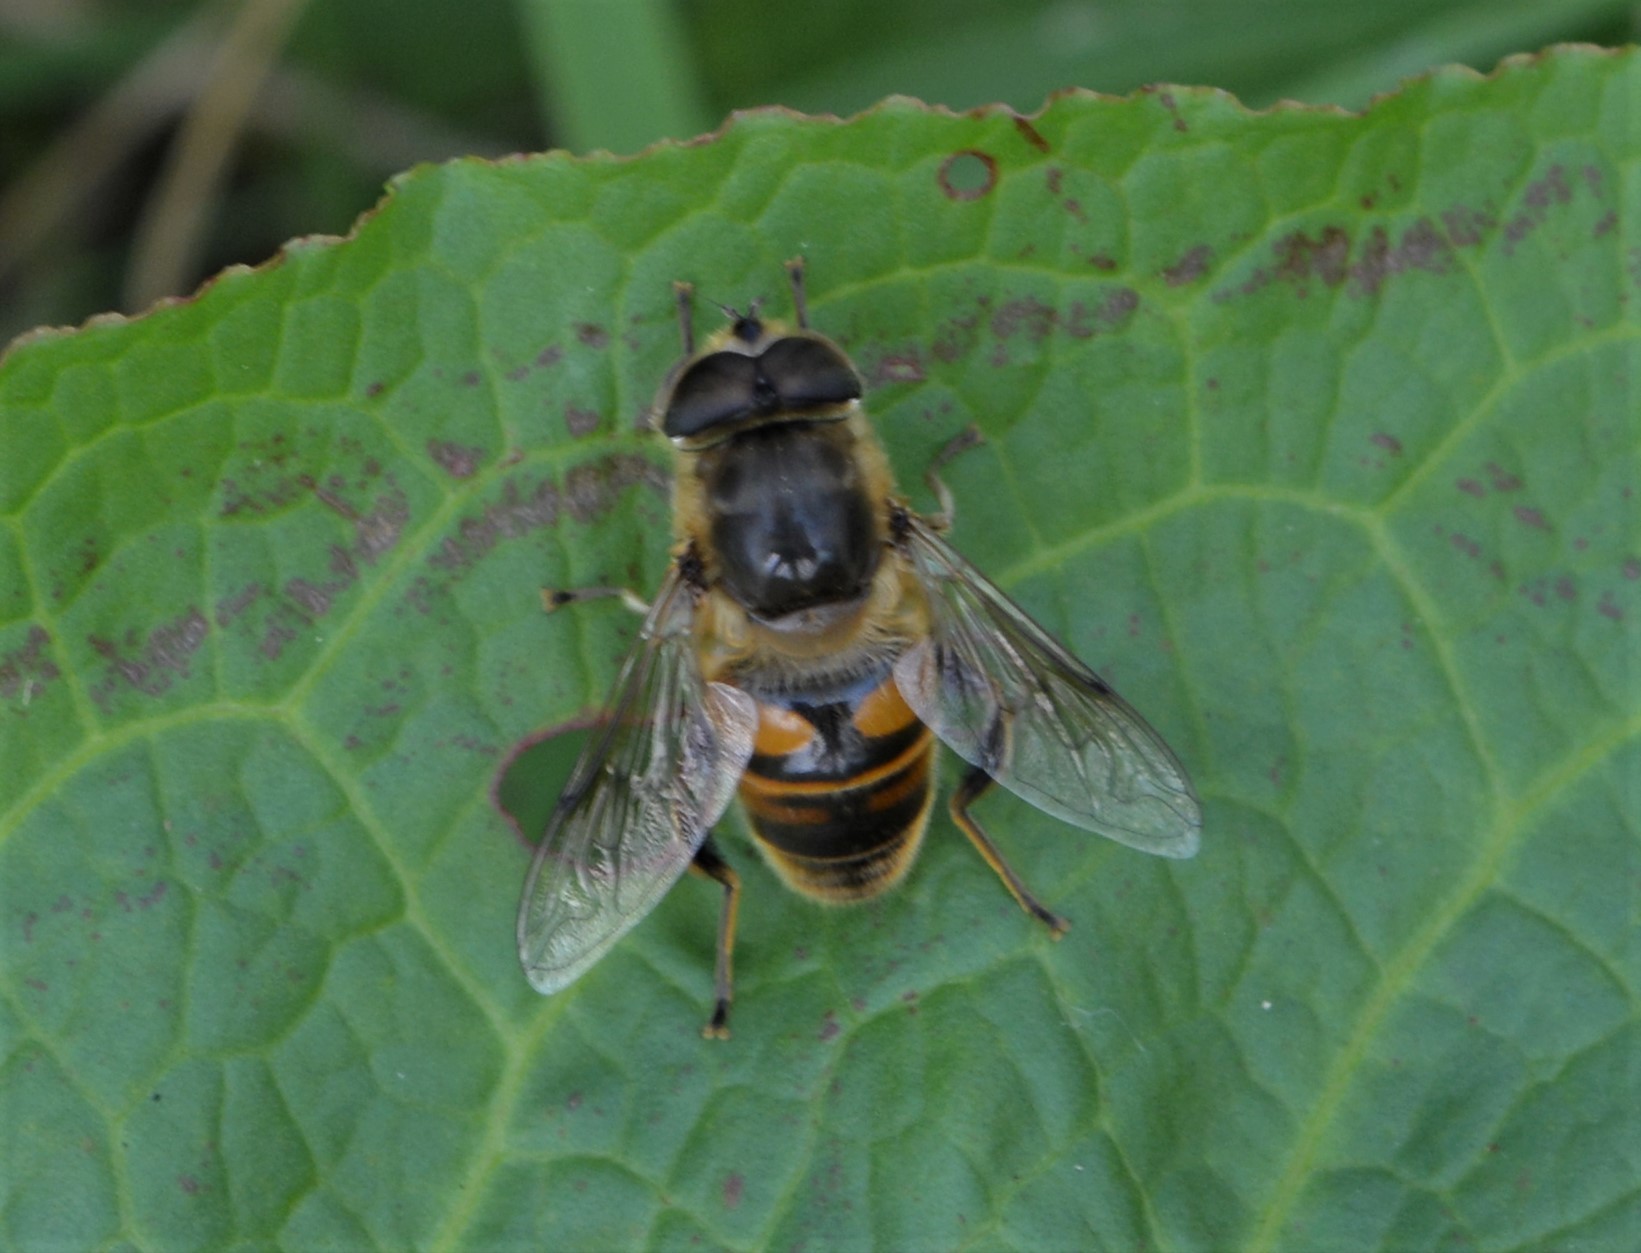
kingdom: Animalia
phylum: Arthropoda
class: Insecta
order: Diptera
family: Syrphidae
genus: Eristalis
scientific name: Eristalis tenax
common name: Drone fly
